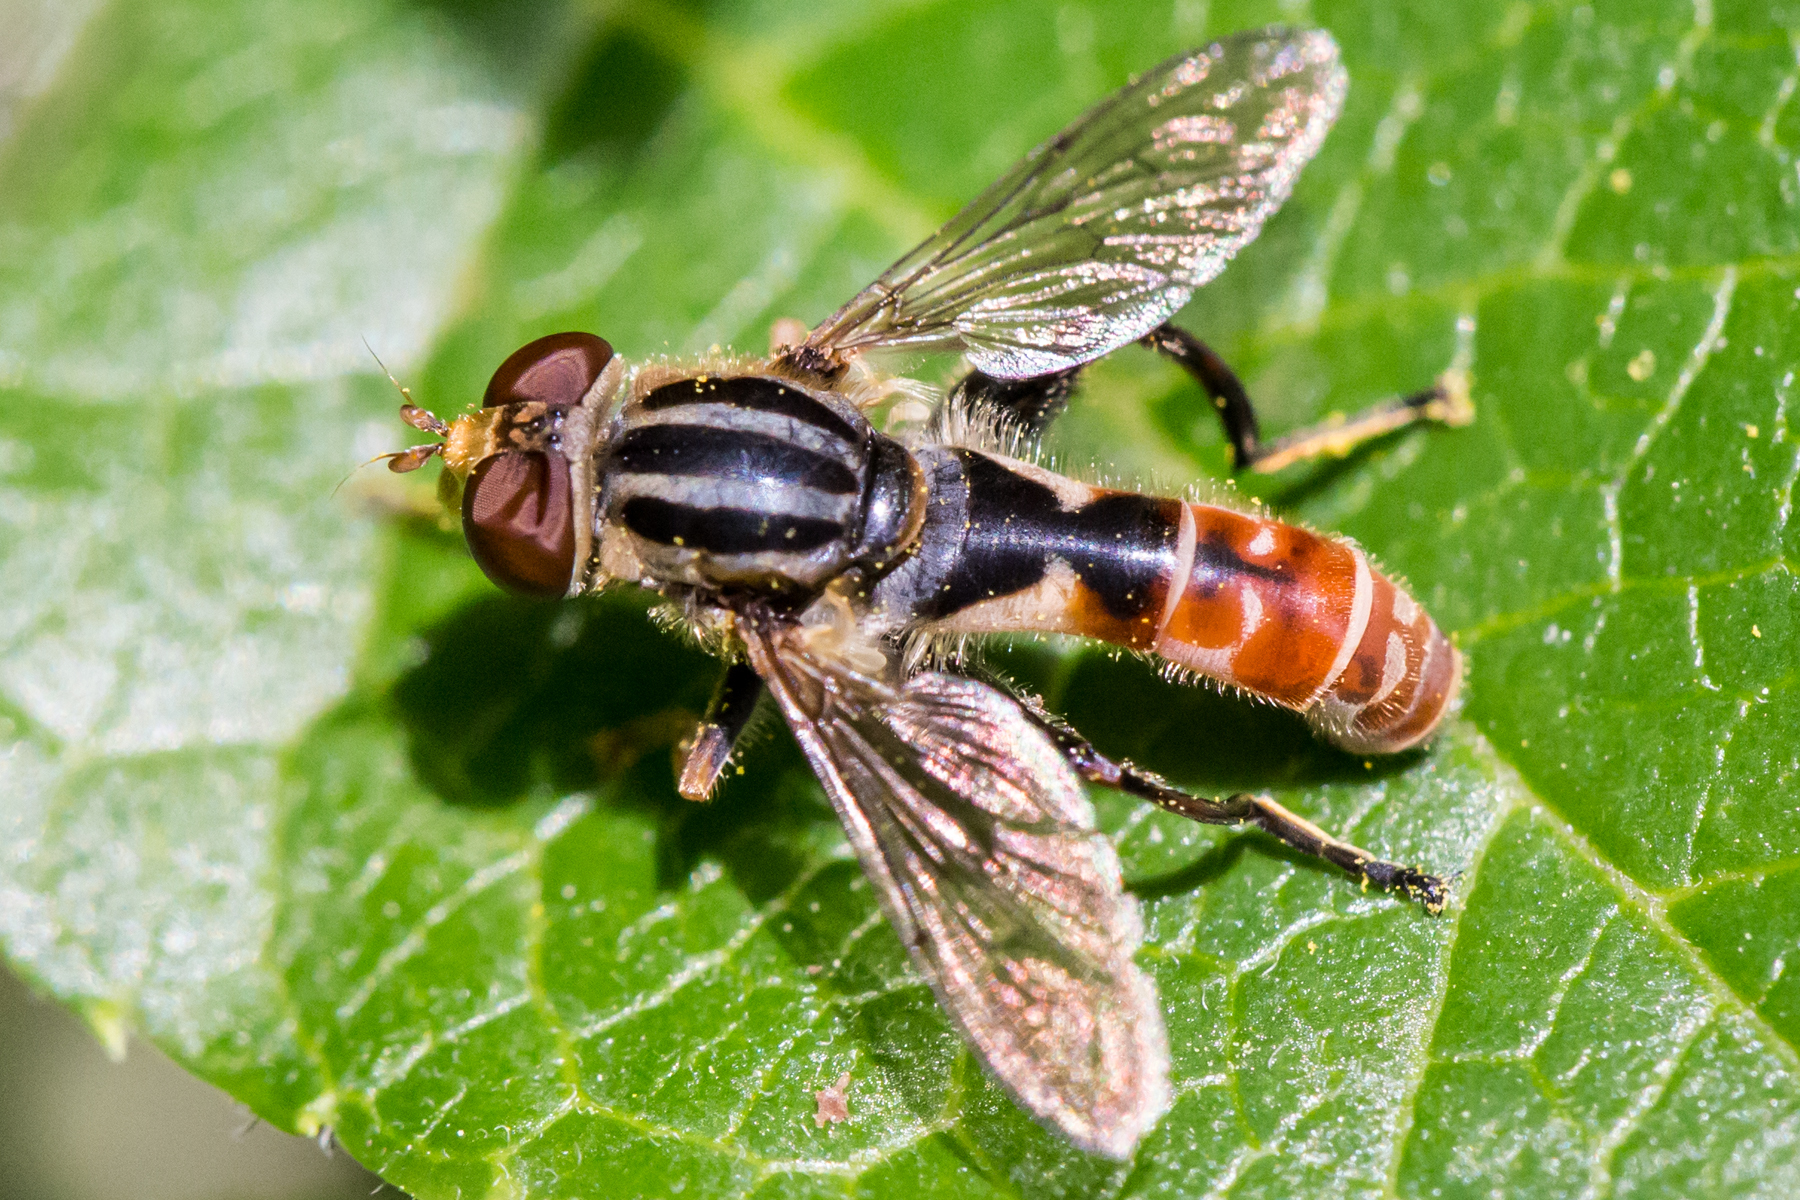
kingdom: Animalia
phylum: Arthropoda
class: Insecta
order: Diptera
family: Syrphidae
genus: Anasimyia
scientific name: Anasimyia chrysostomus
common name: Lump-legged swamp fly
